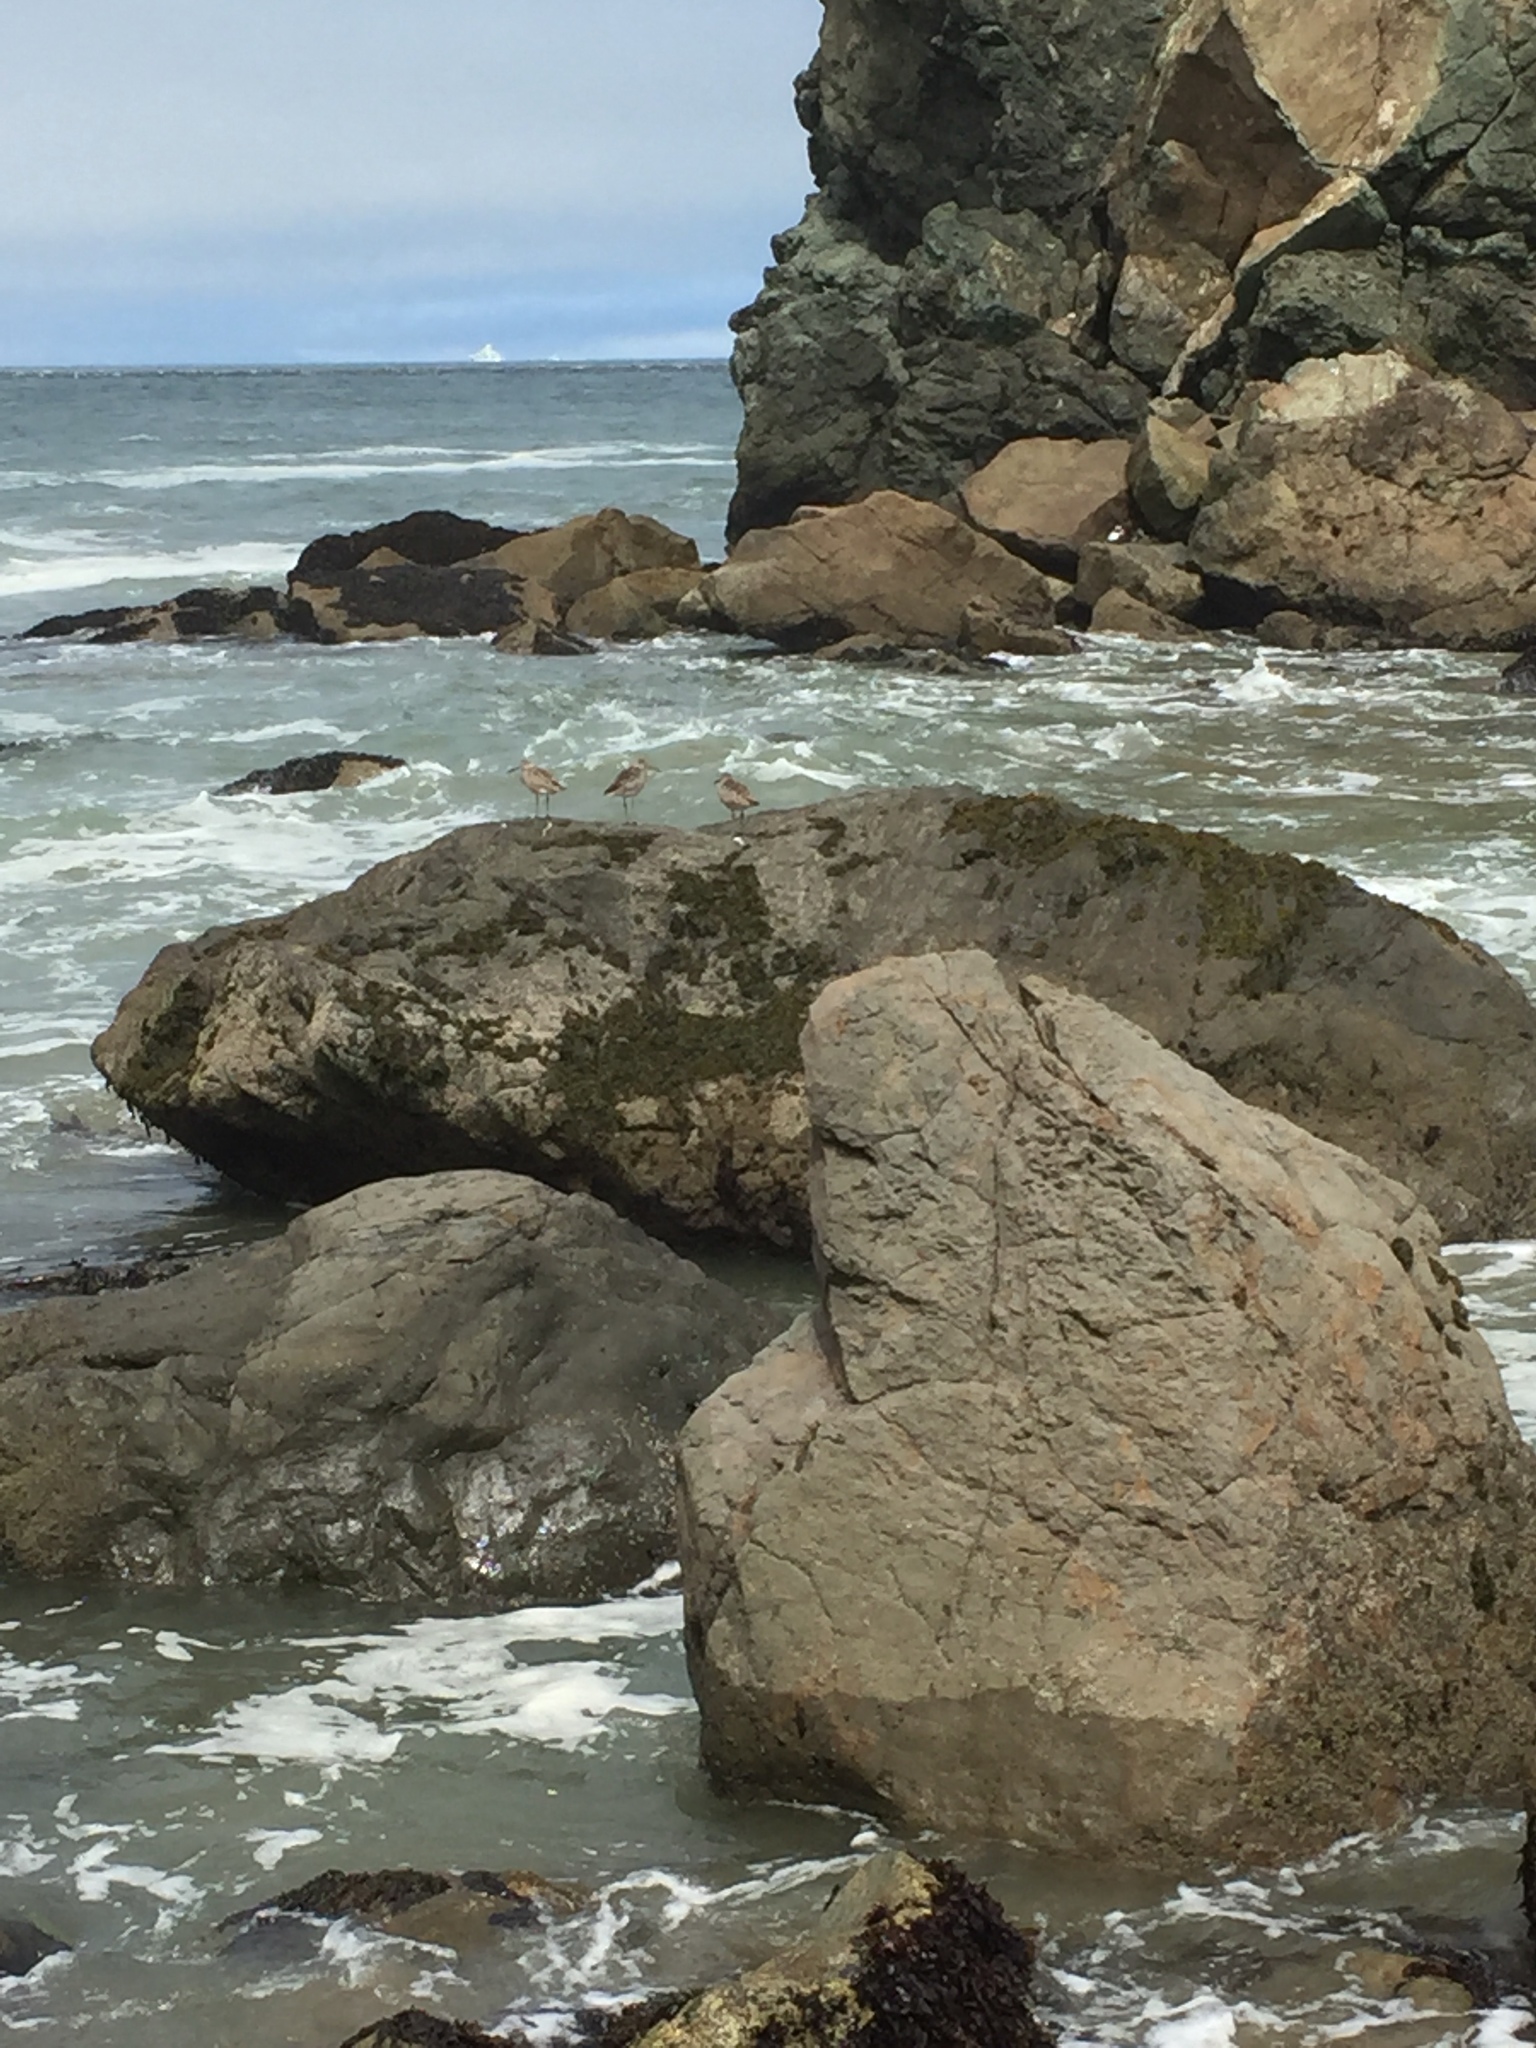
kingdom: Animalia
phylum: Chordata
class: Aves
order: Charadriiformes
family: Scolopacidae
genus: Tringa
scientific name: Tringa semipalmata
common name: Willet
